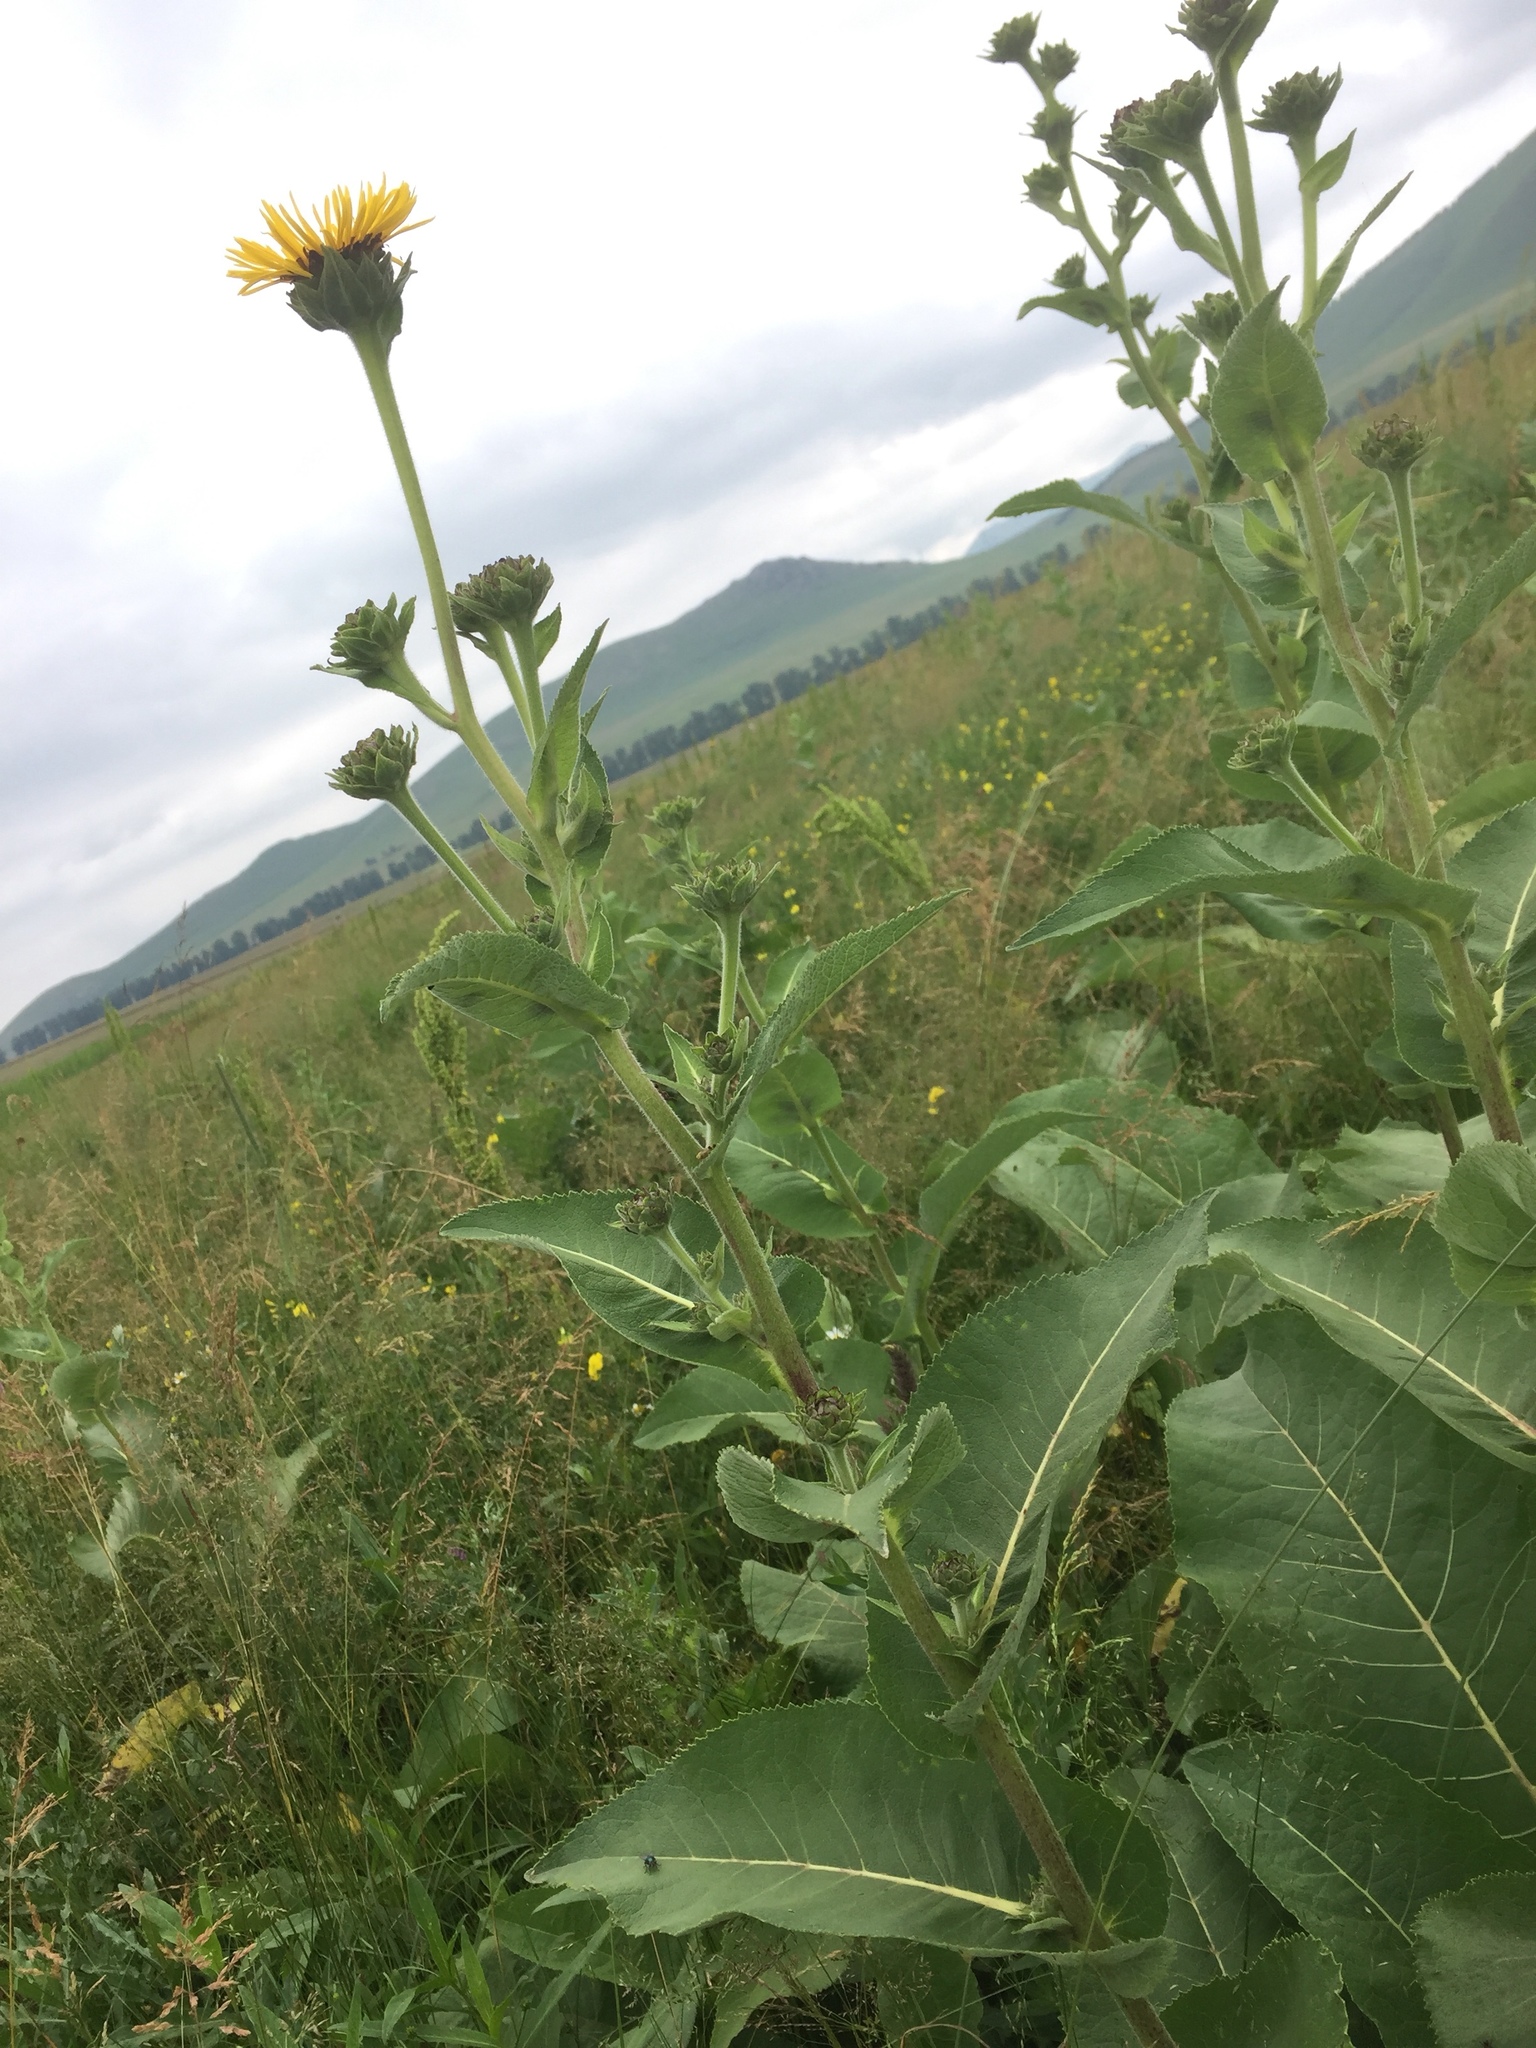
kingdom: Plantae
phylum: Tracheophyta
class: Magnoliopsida
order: Asterales
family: Asteraceae
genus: Inula
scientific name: Inula helenium
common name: Elecampane
